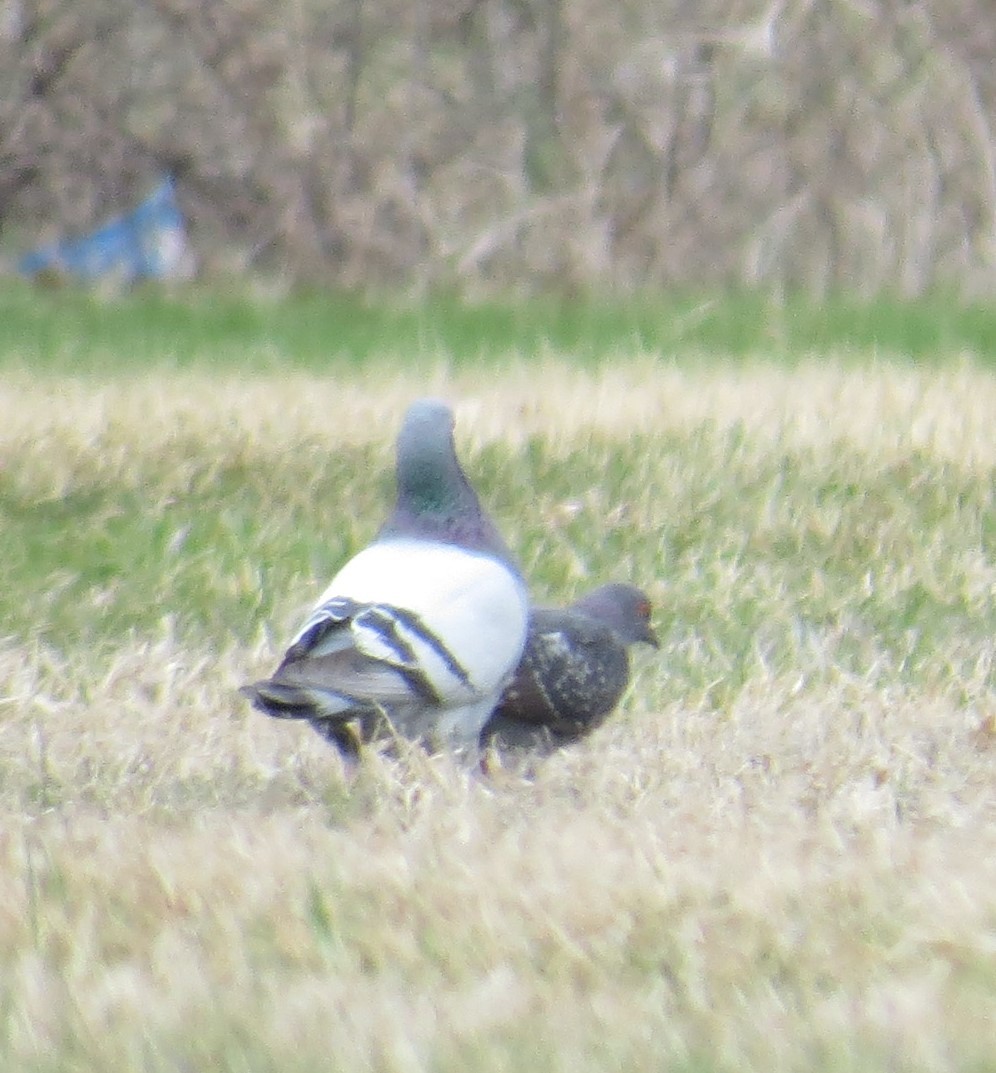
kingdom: Animalia
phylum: Chordata
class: Aves
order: Columbiformes
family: Columbidae
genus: Columba
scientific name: Columba livia
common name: Rock pigeon
